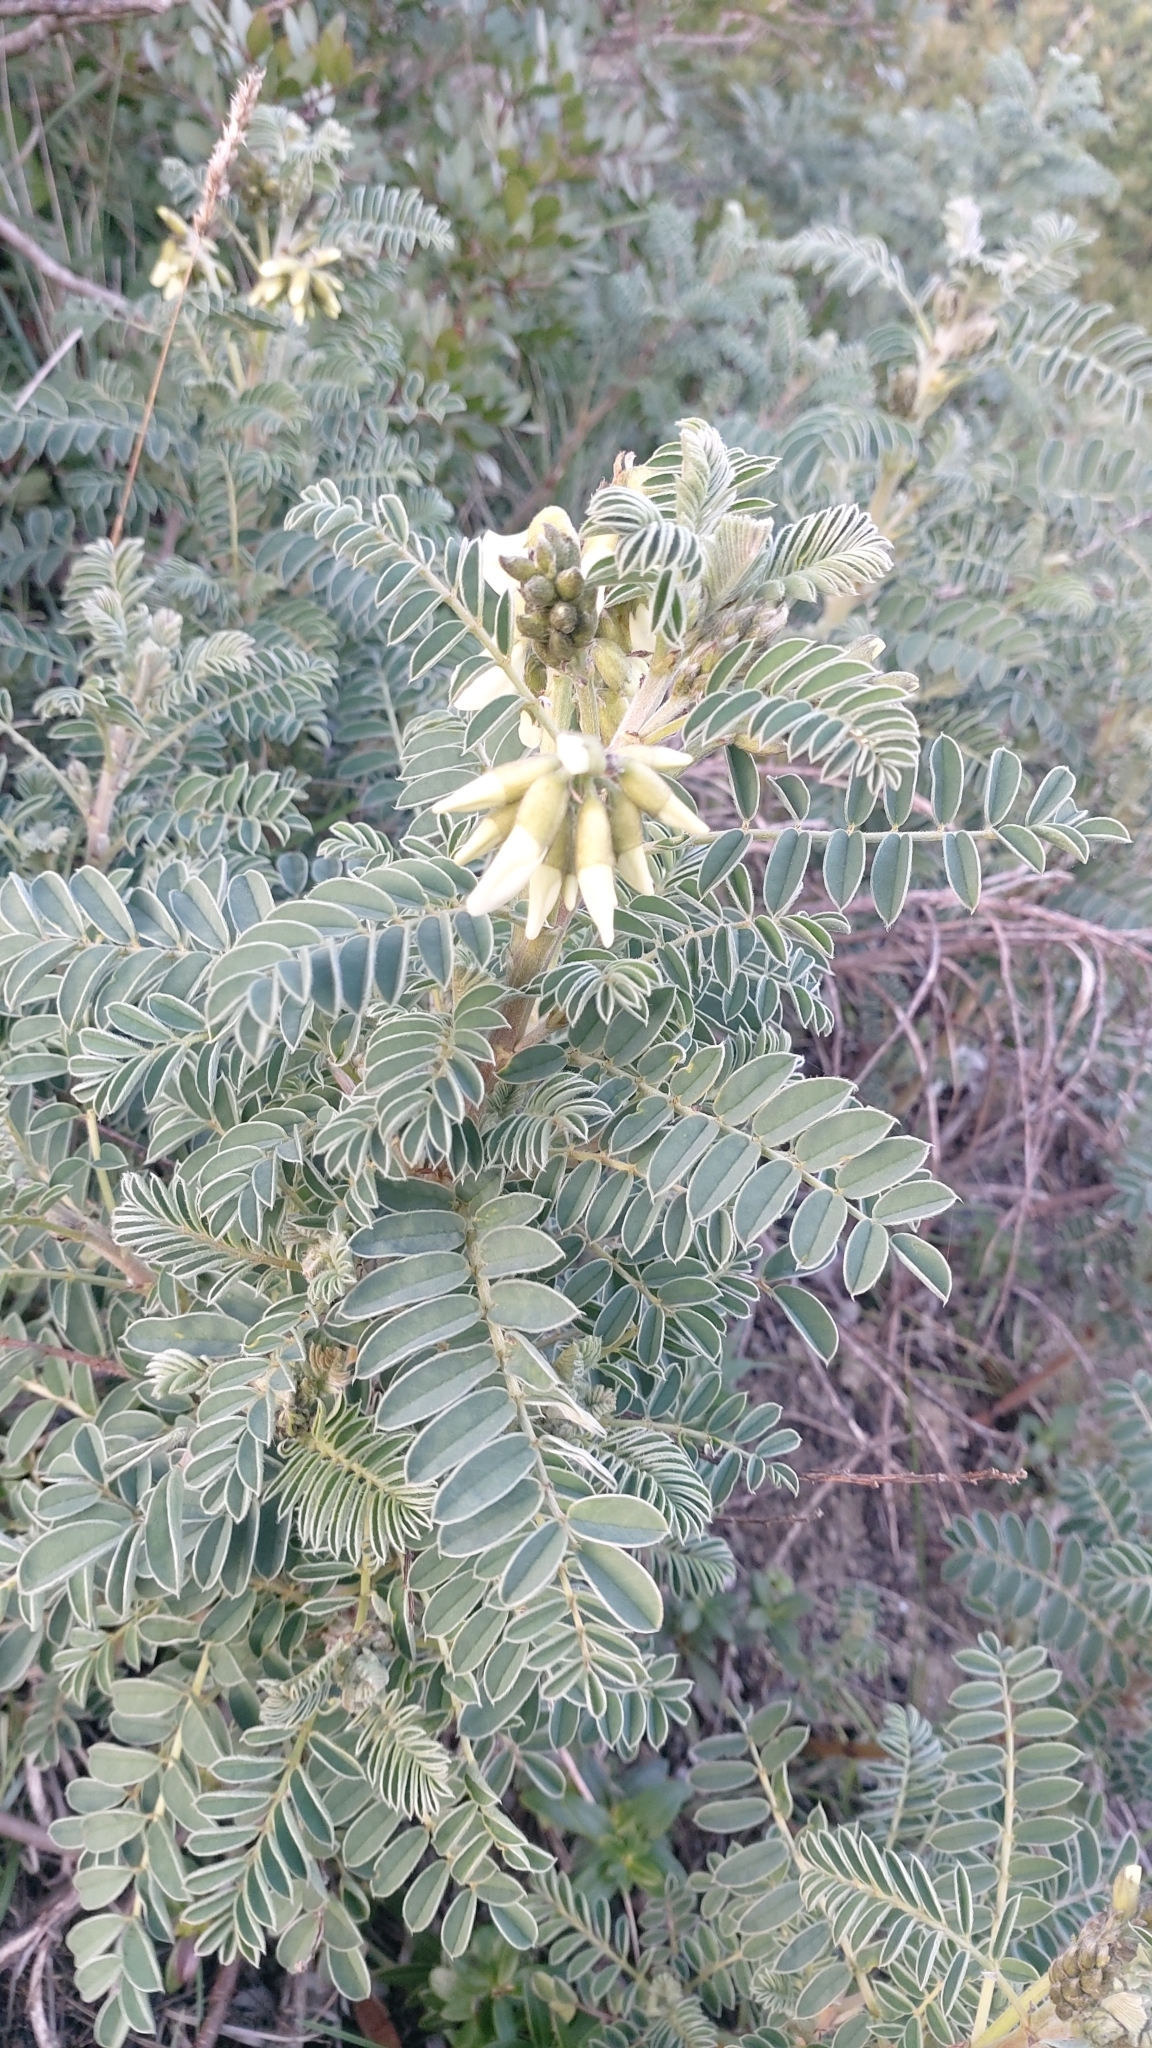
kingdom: Plantae
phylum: Tracheophyta
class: Magnoliopsida
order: Fabales
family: Fabaceae
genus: Erophaca
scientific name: Erophaca baetica
